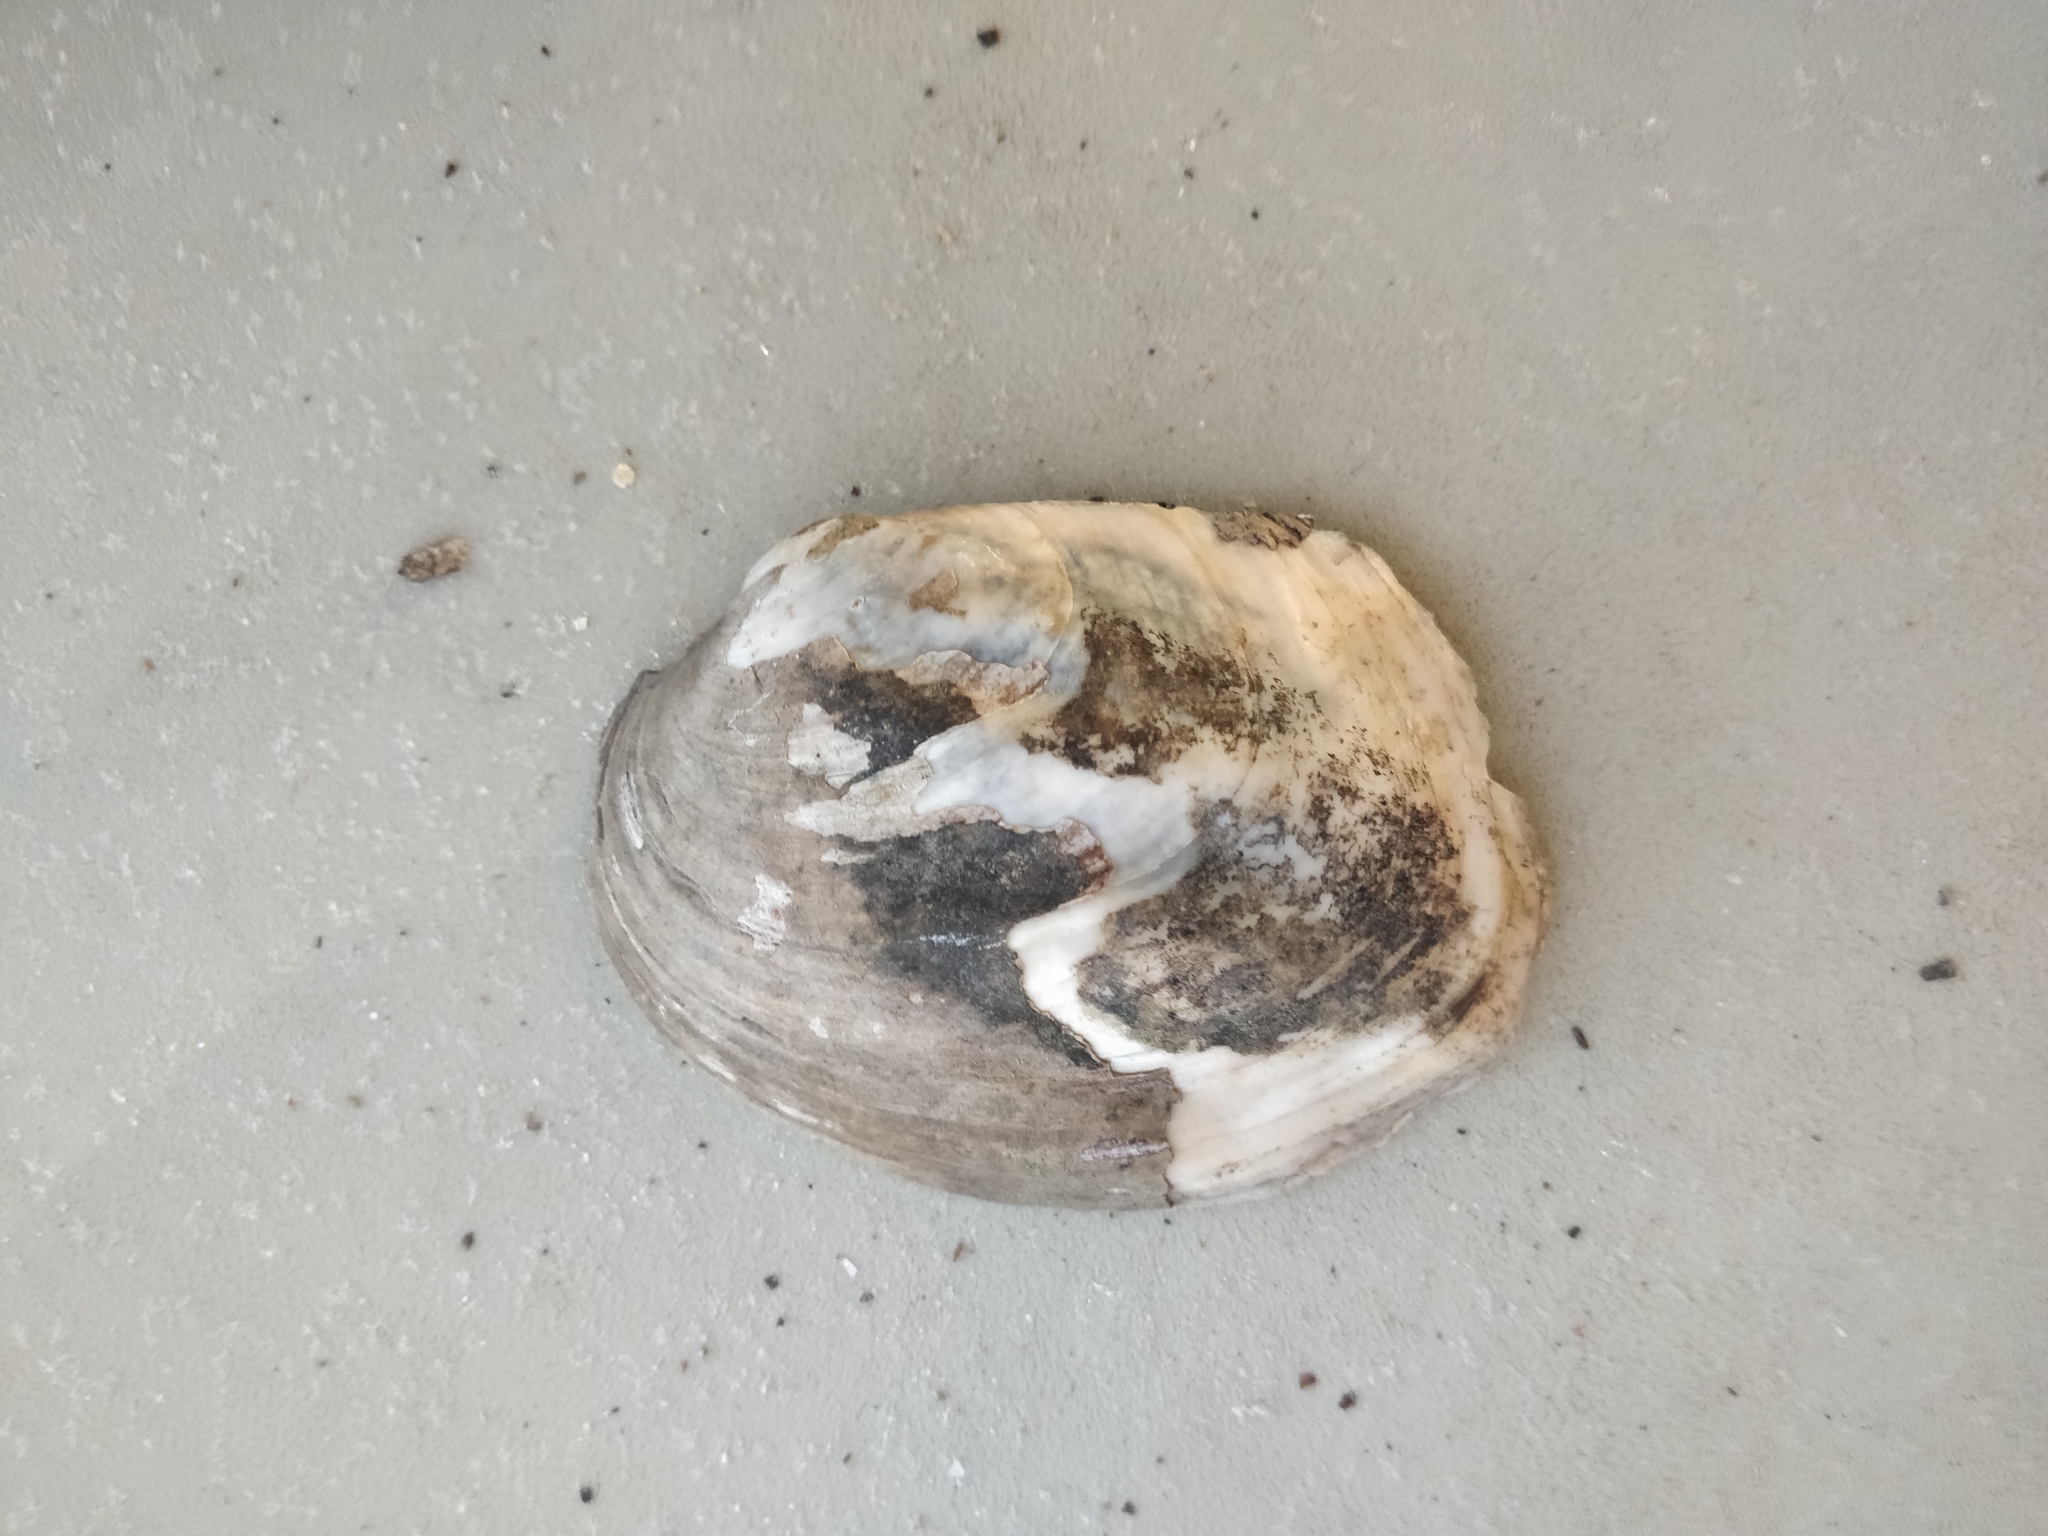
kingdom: Animalia
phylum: Mollusca
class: Bivalvia
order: Unionida
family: Unionidae
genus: Amblema
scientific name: Amblema plicata
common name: Threeridge
